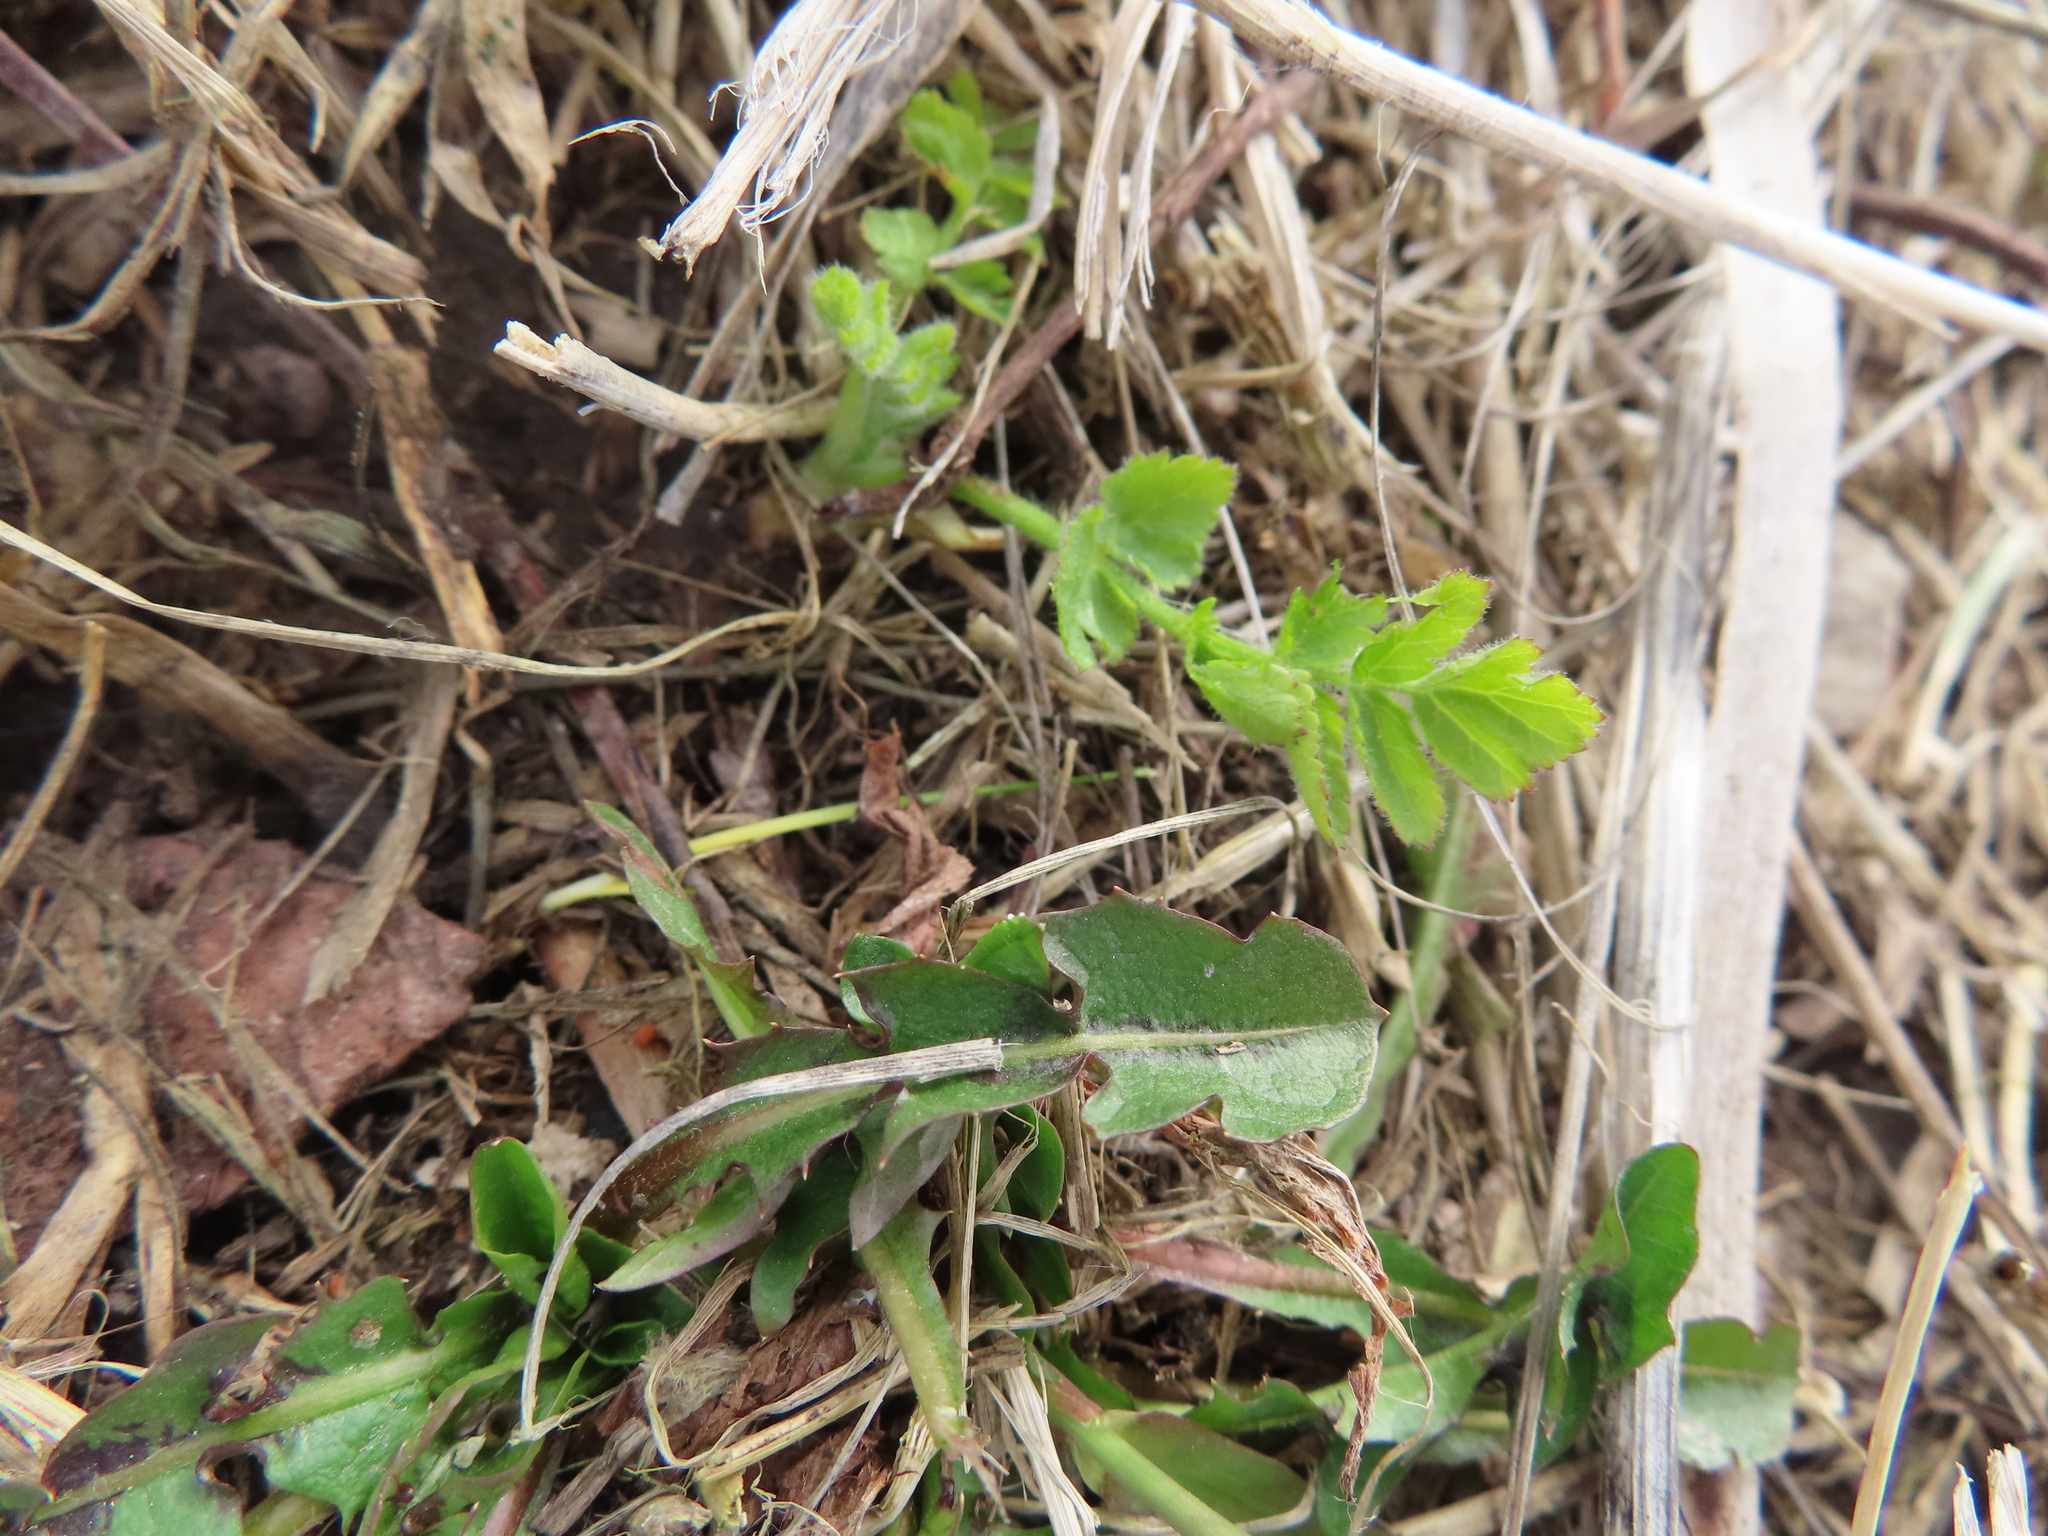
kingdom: Plantae
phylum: Tracheophyta
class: Magnoliopsida
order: Asterales
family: Asteraceae
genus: Taraxacum
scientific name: Taraxacum officinale
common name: Common dandelion
